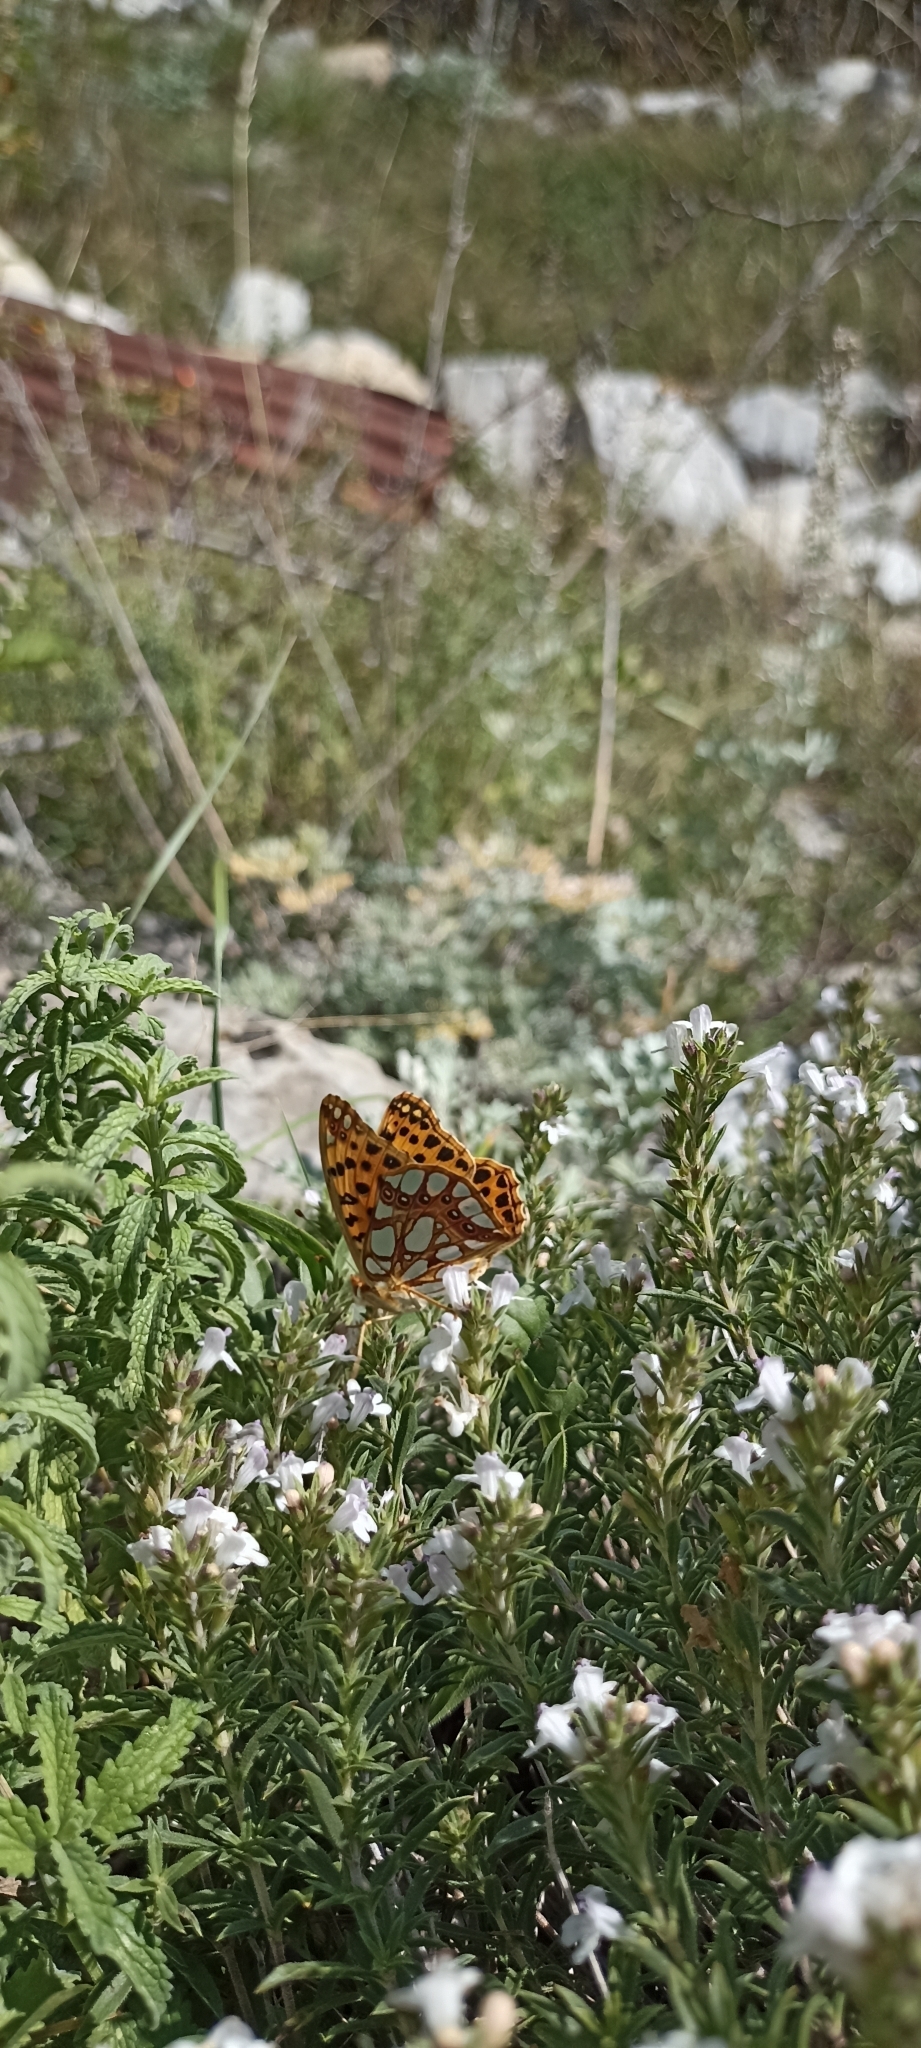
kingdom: Animalia
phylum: Arthropoda
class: Insecta
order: Lepidoptera
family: Nymphalidae
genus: Issoria
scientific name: Issoria lathonia
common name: Queen of spain fritillary
